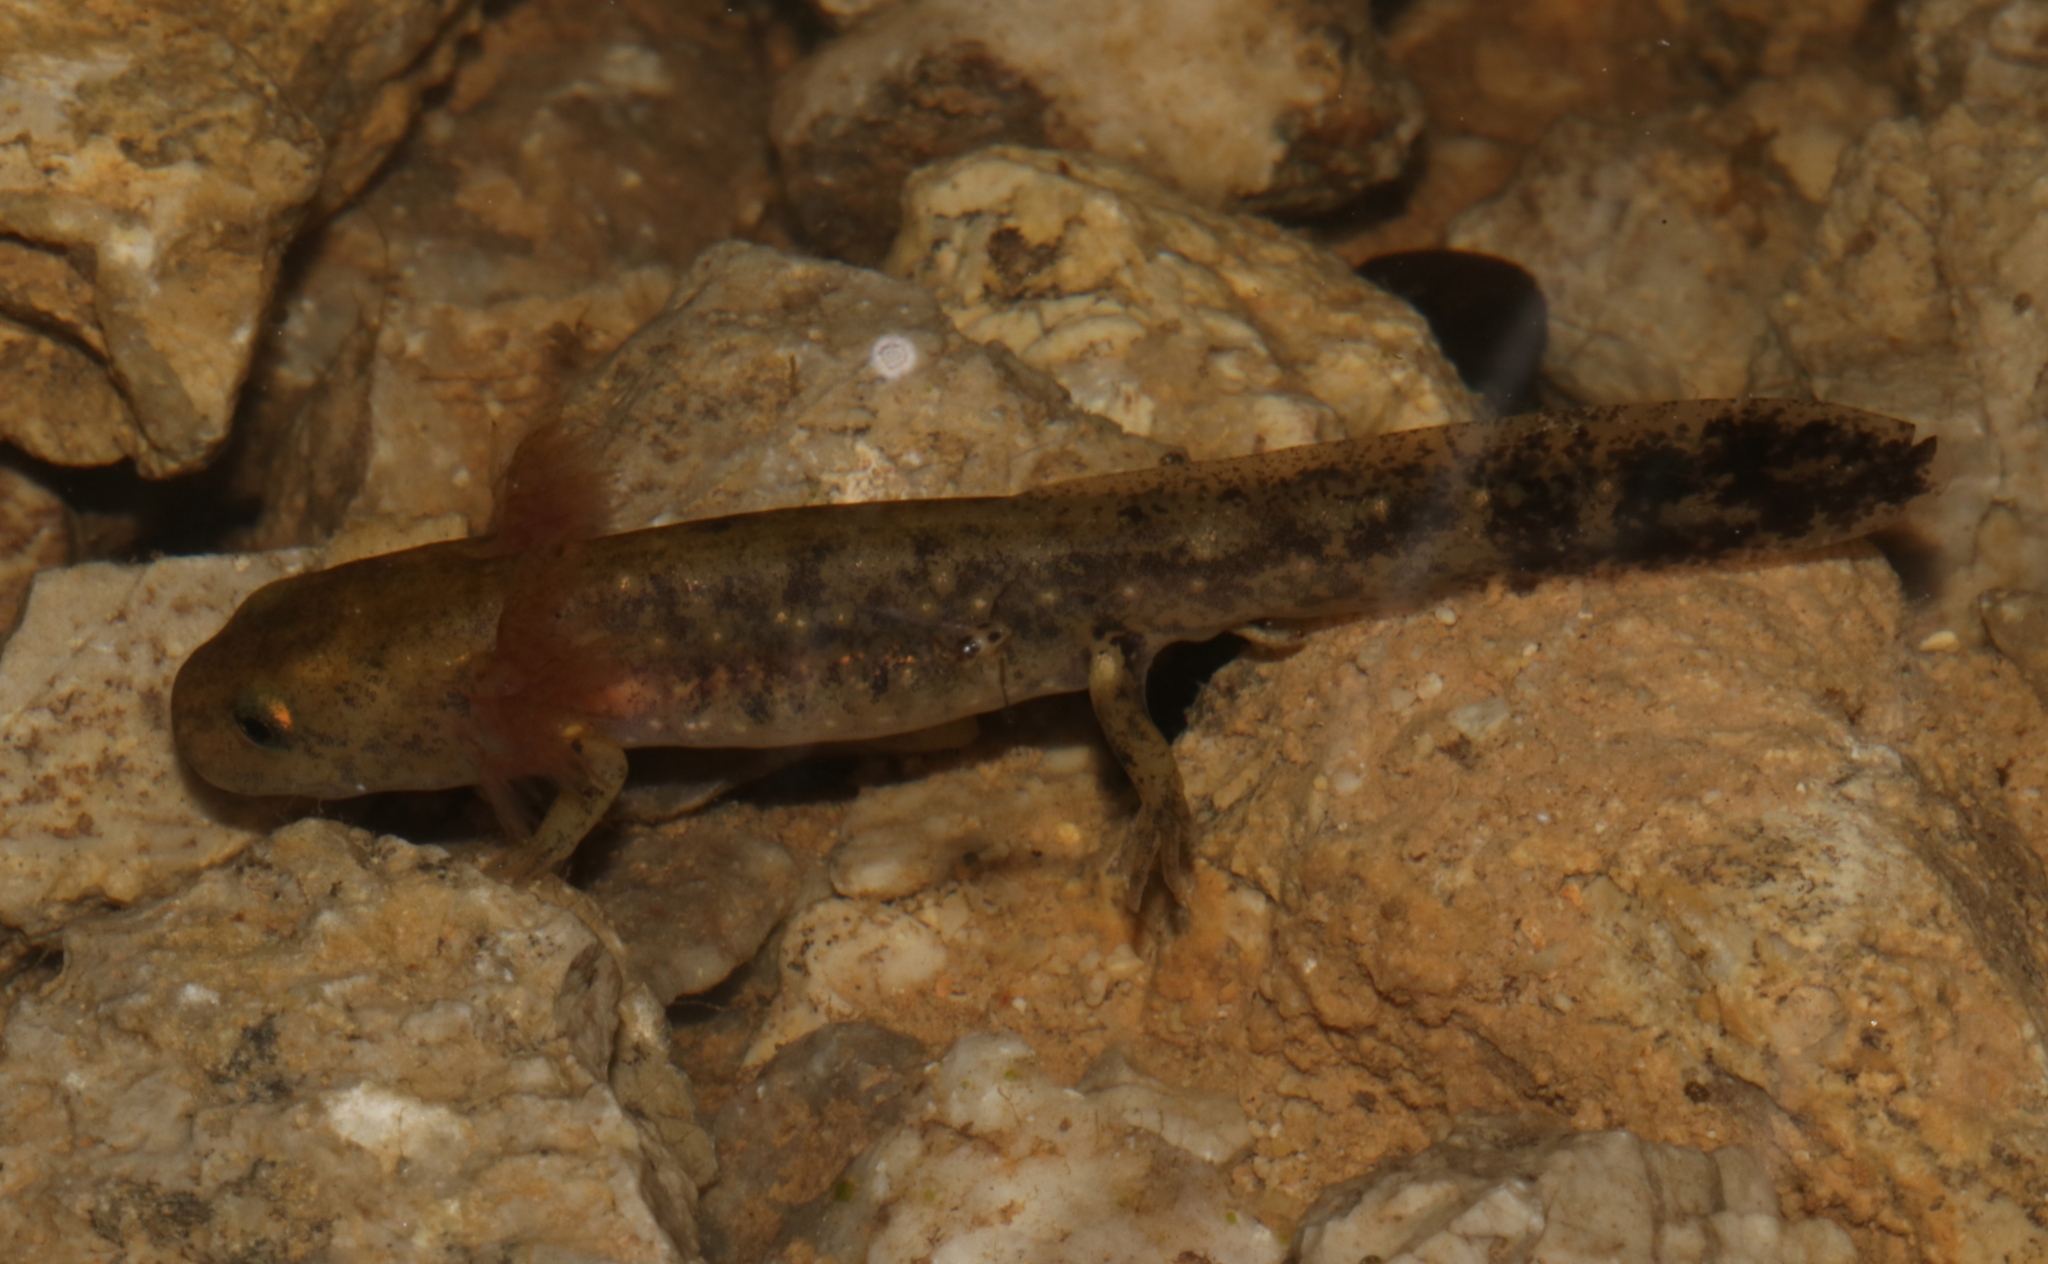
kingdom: Animalia
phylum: Chordata
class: Amphibia
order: Caudata
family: Salamandridae
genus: Salamandra
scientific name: Salamandra salamandra
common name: Fire salamander
